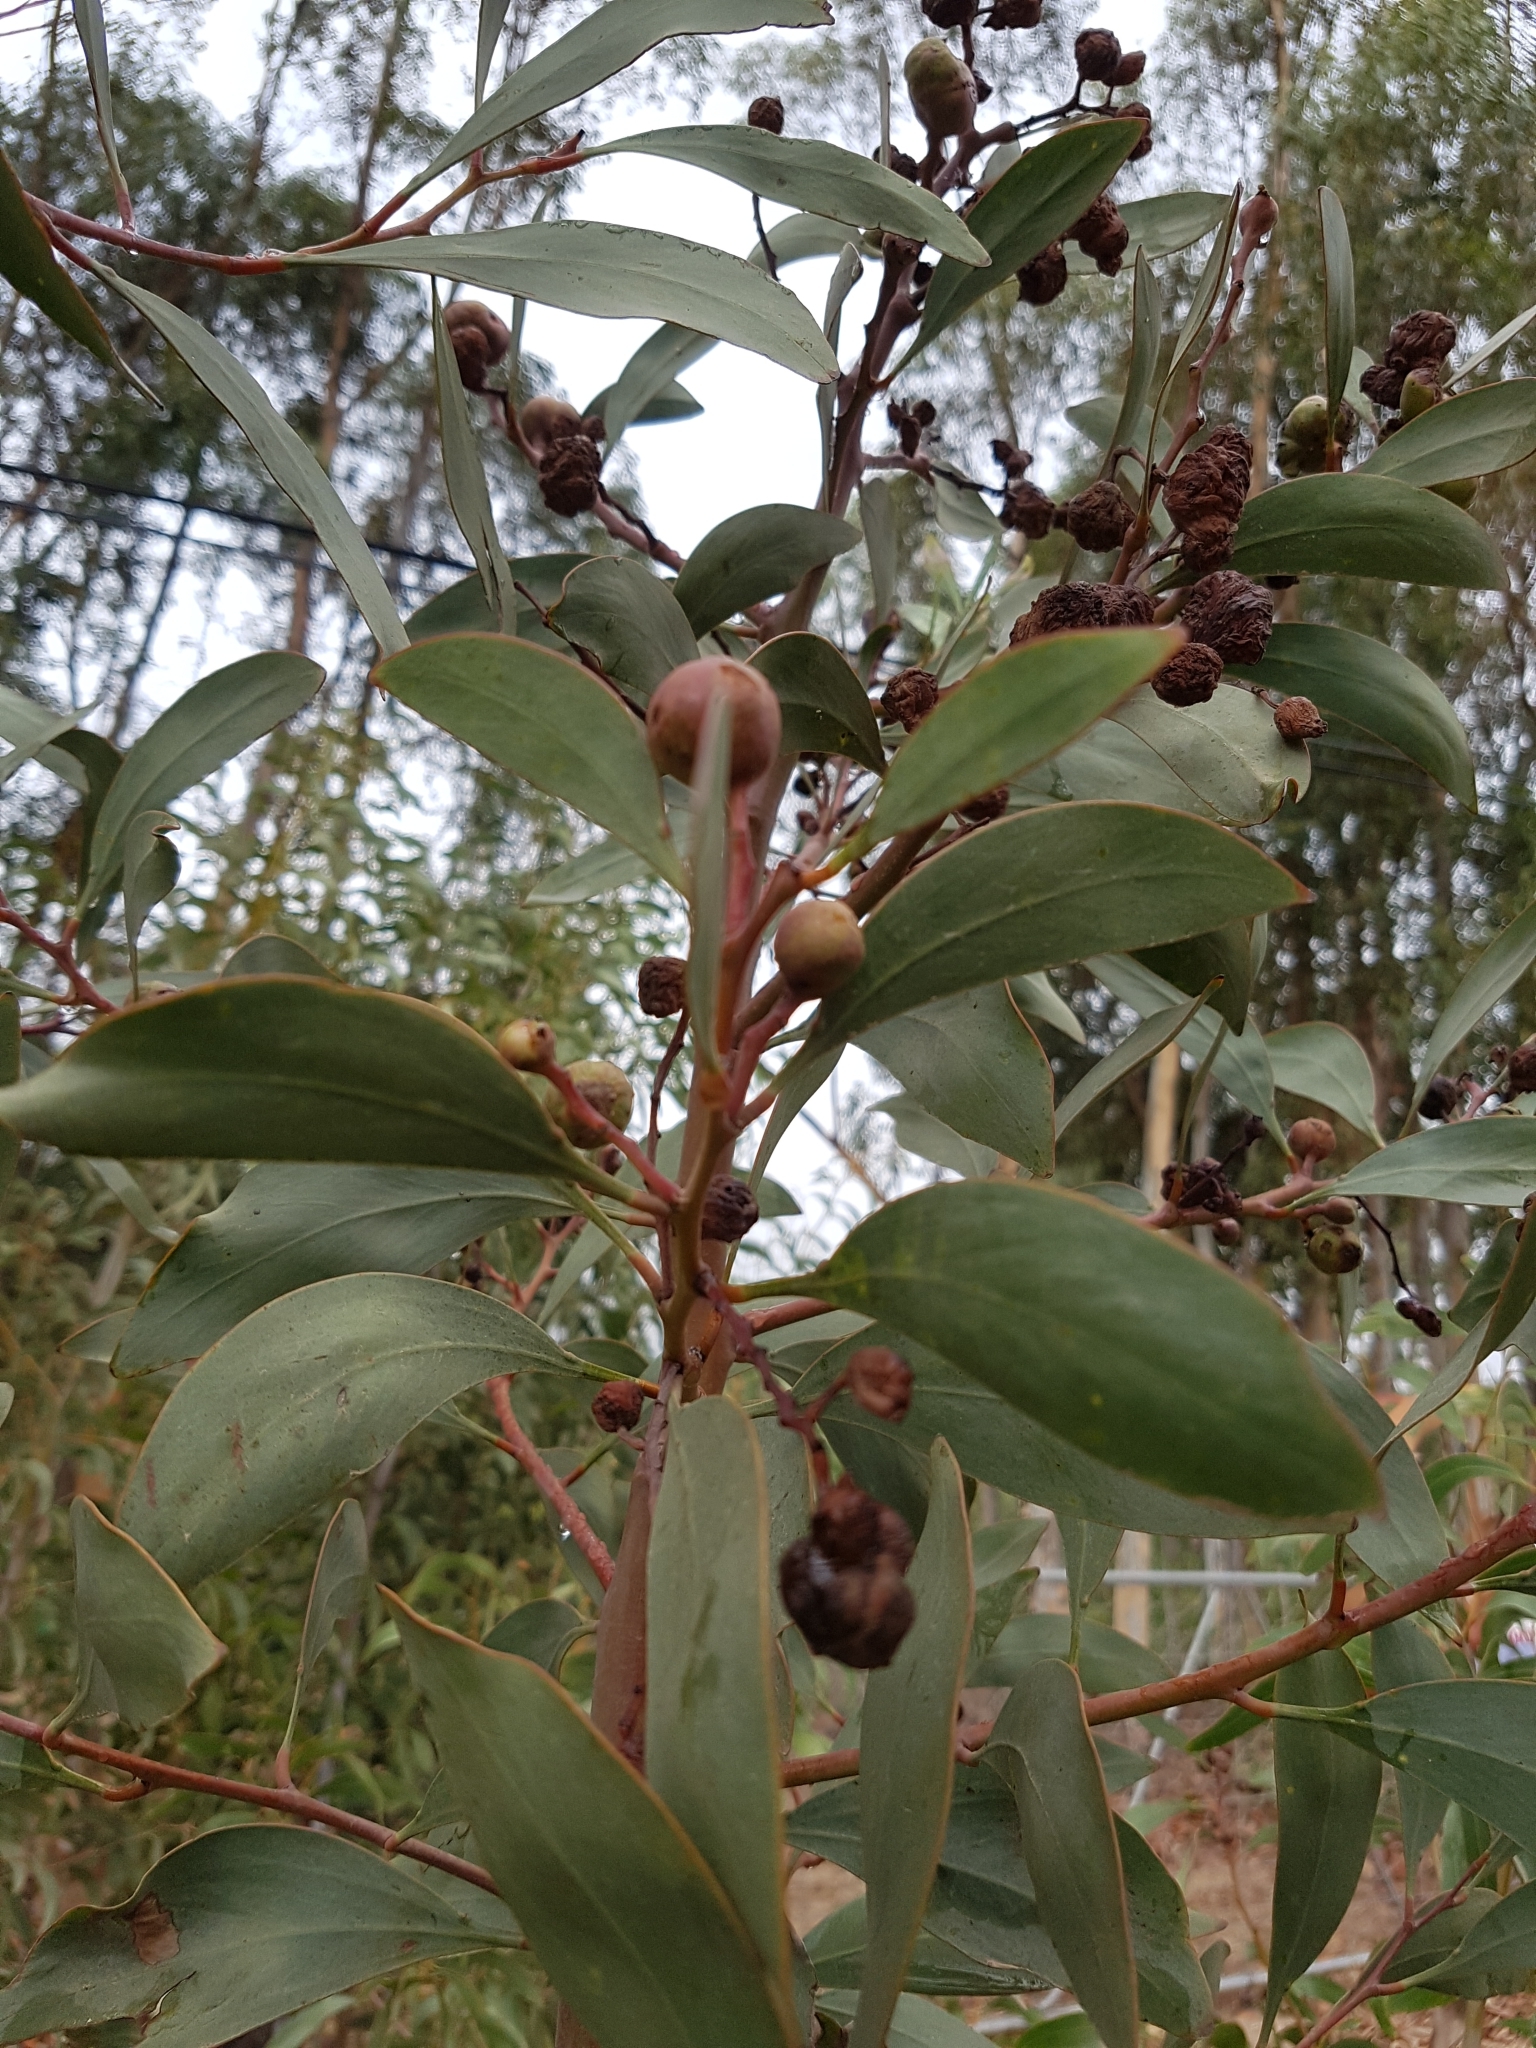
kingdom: Plantae
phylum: Tracheophyta
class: Magnoliopsida
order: Fabales
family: Fabaceae
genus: Acacia
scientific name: Acacia pycnantha
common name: Golden wattle
